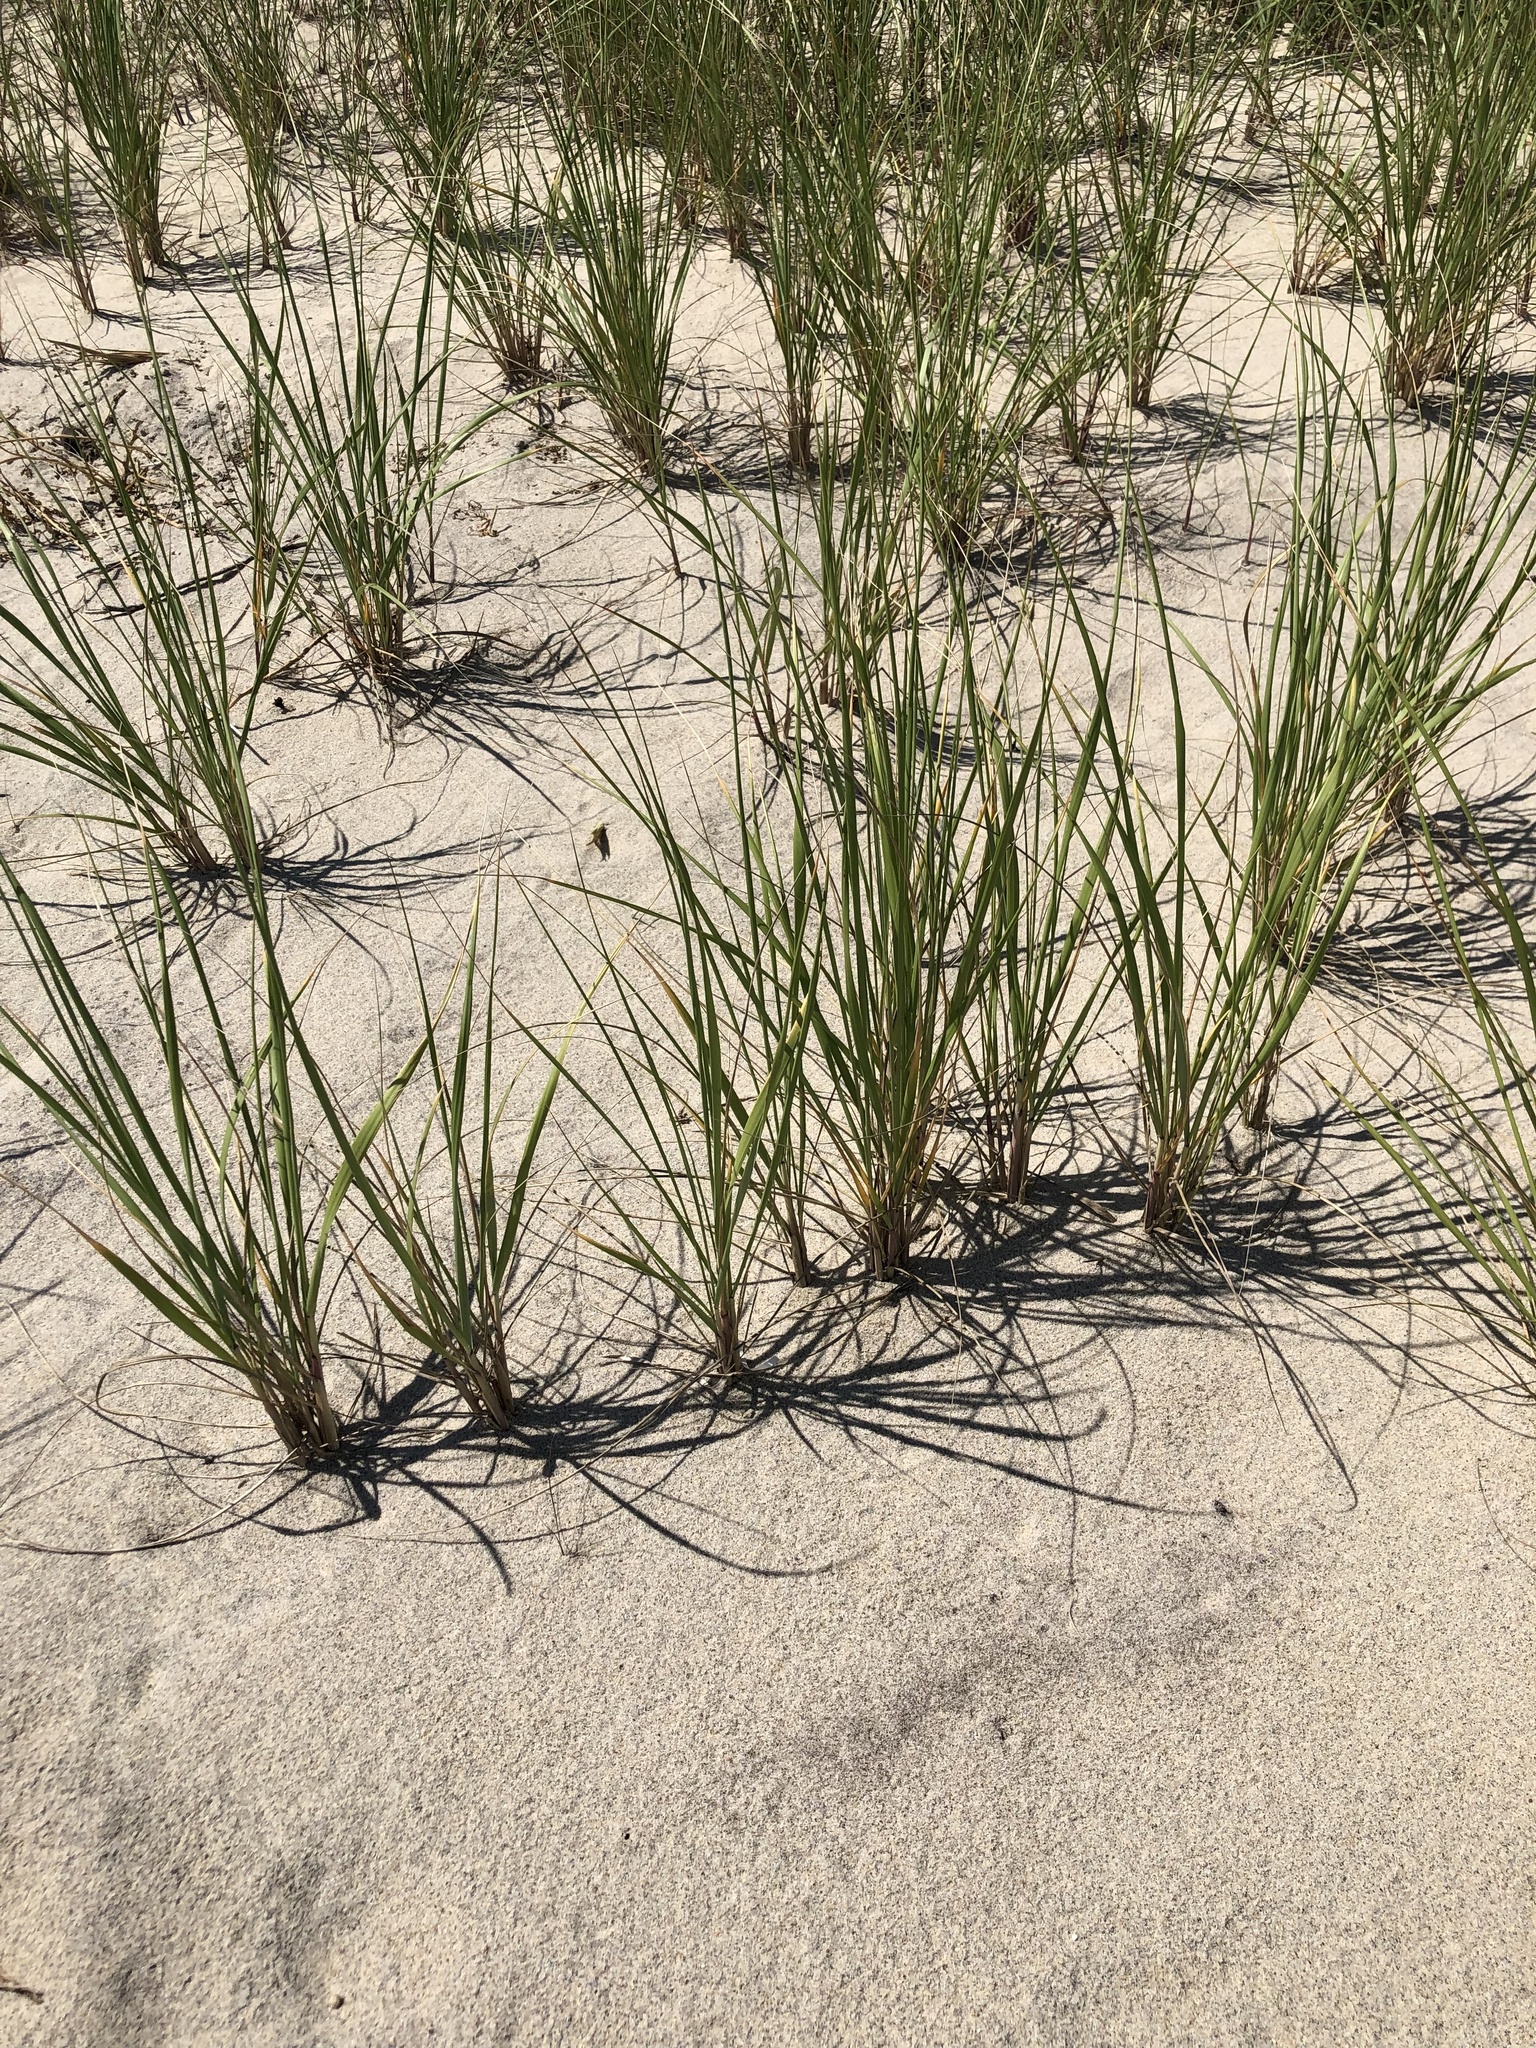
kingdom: Plantae
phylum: Tracheophyta
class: Liliopsida
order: Poales
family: Poaceae
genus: Calamagrostis
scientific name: Calamagrostis breviligulata
